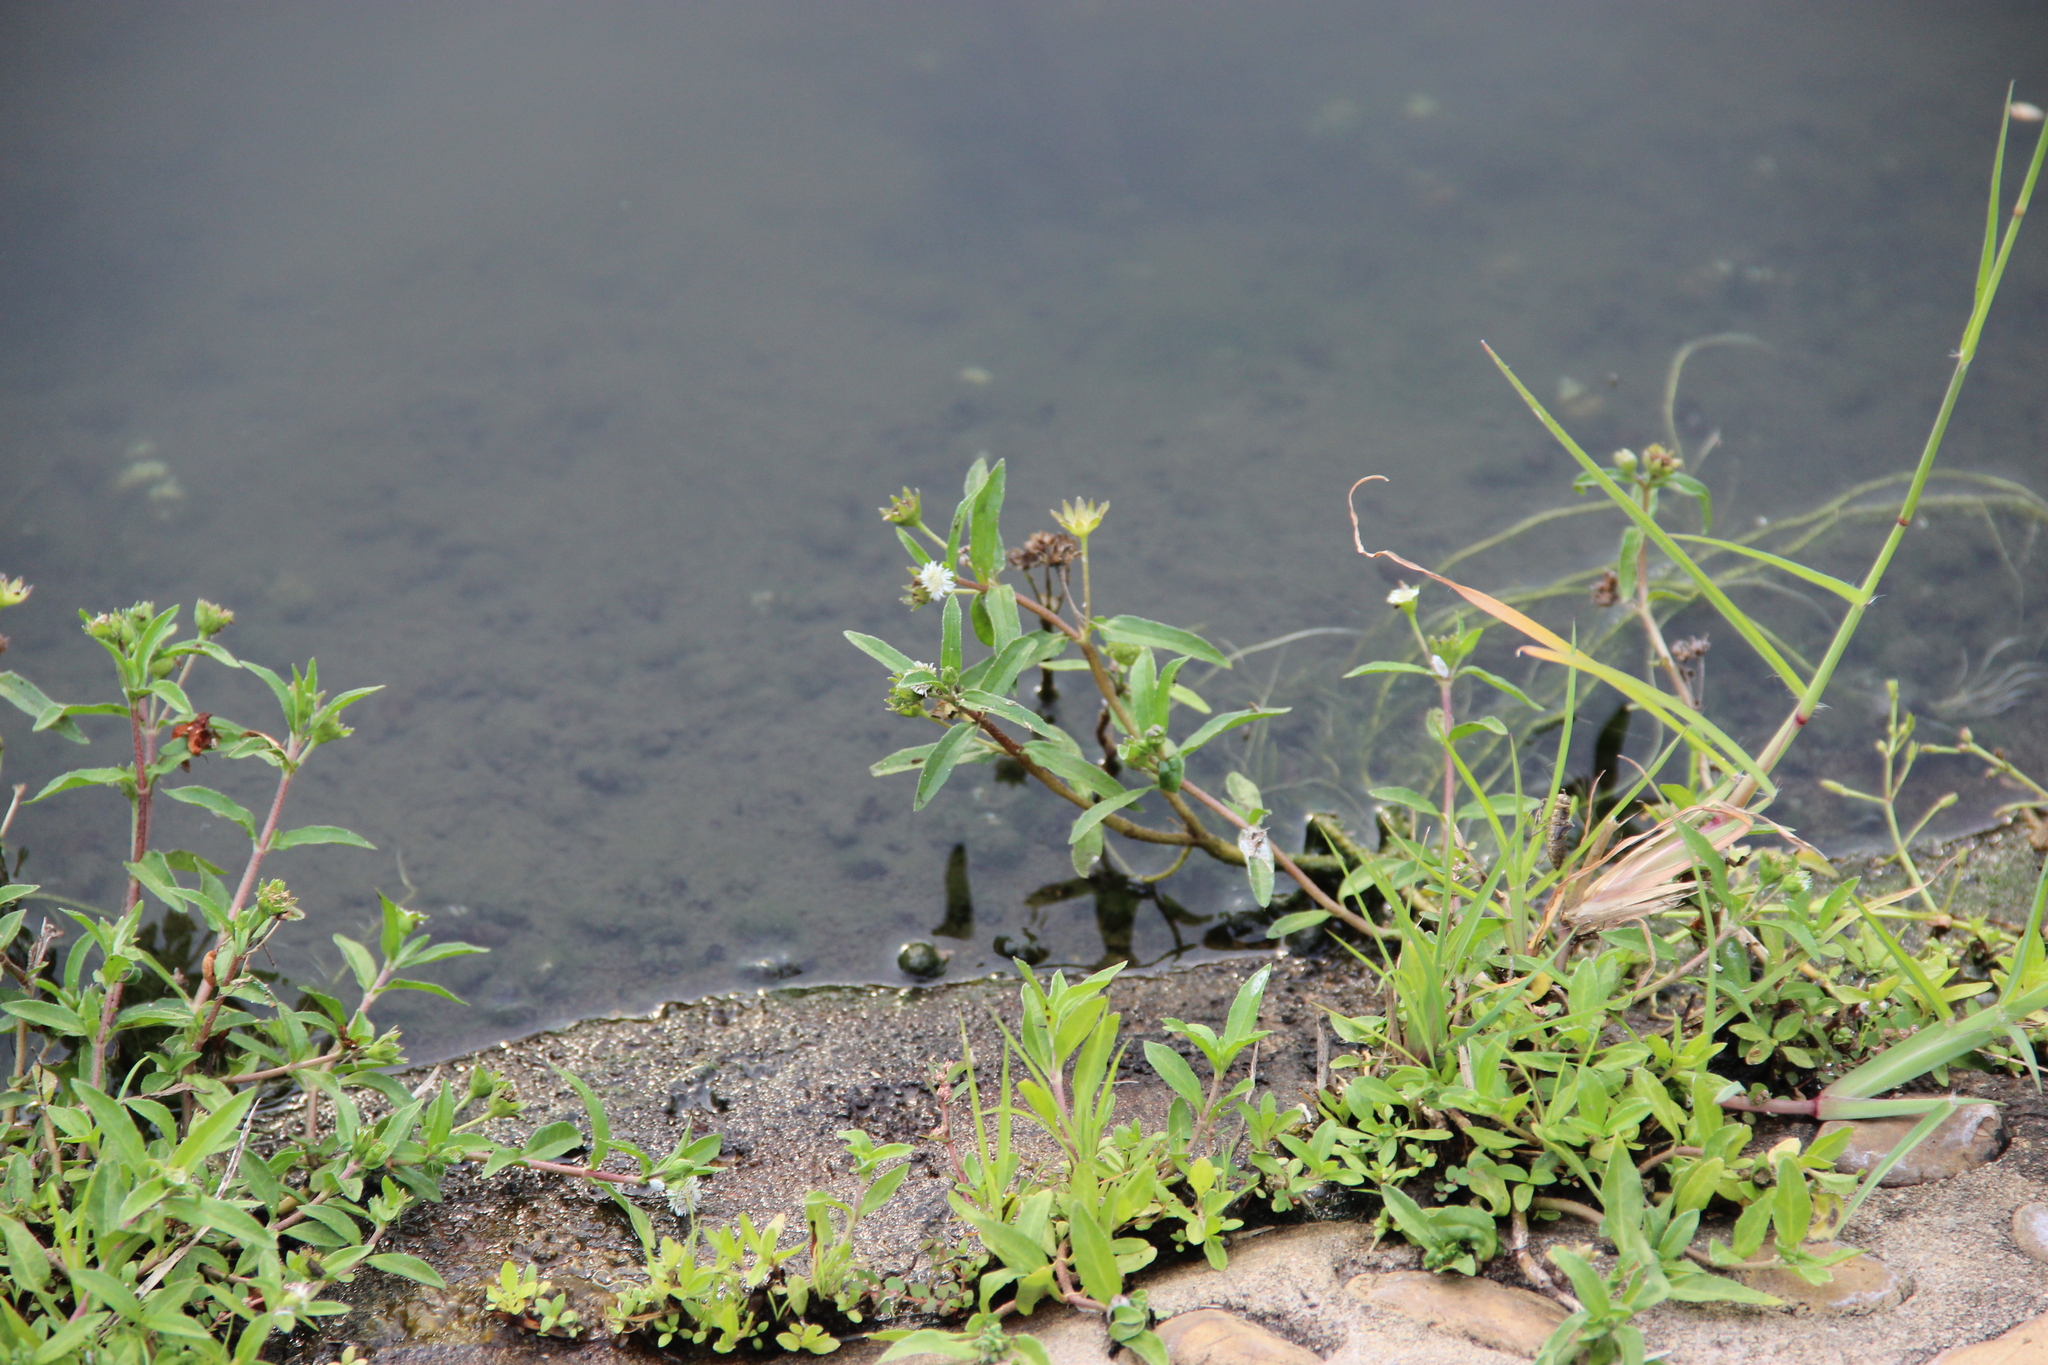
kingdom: Plantae
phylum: Tracheophyta
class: Magnoliopsida
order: Asterales
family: Asteraceae
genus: Eclipta
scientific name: Eclipta prostrata
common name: False daisy
